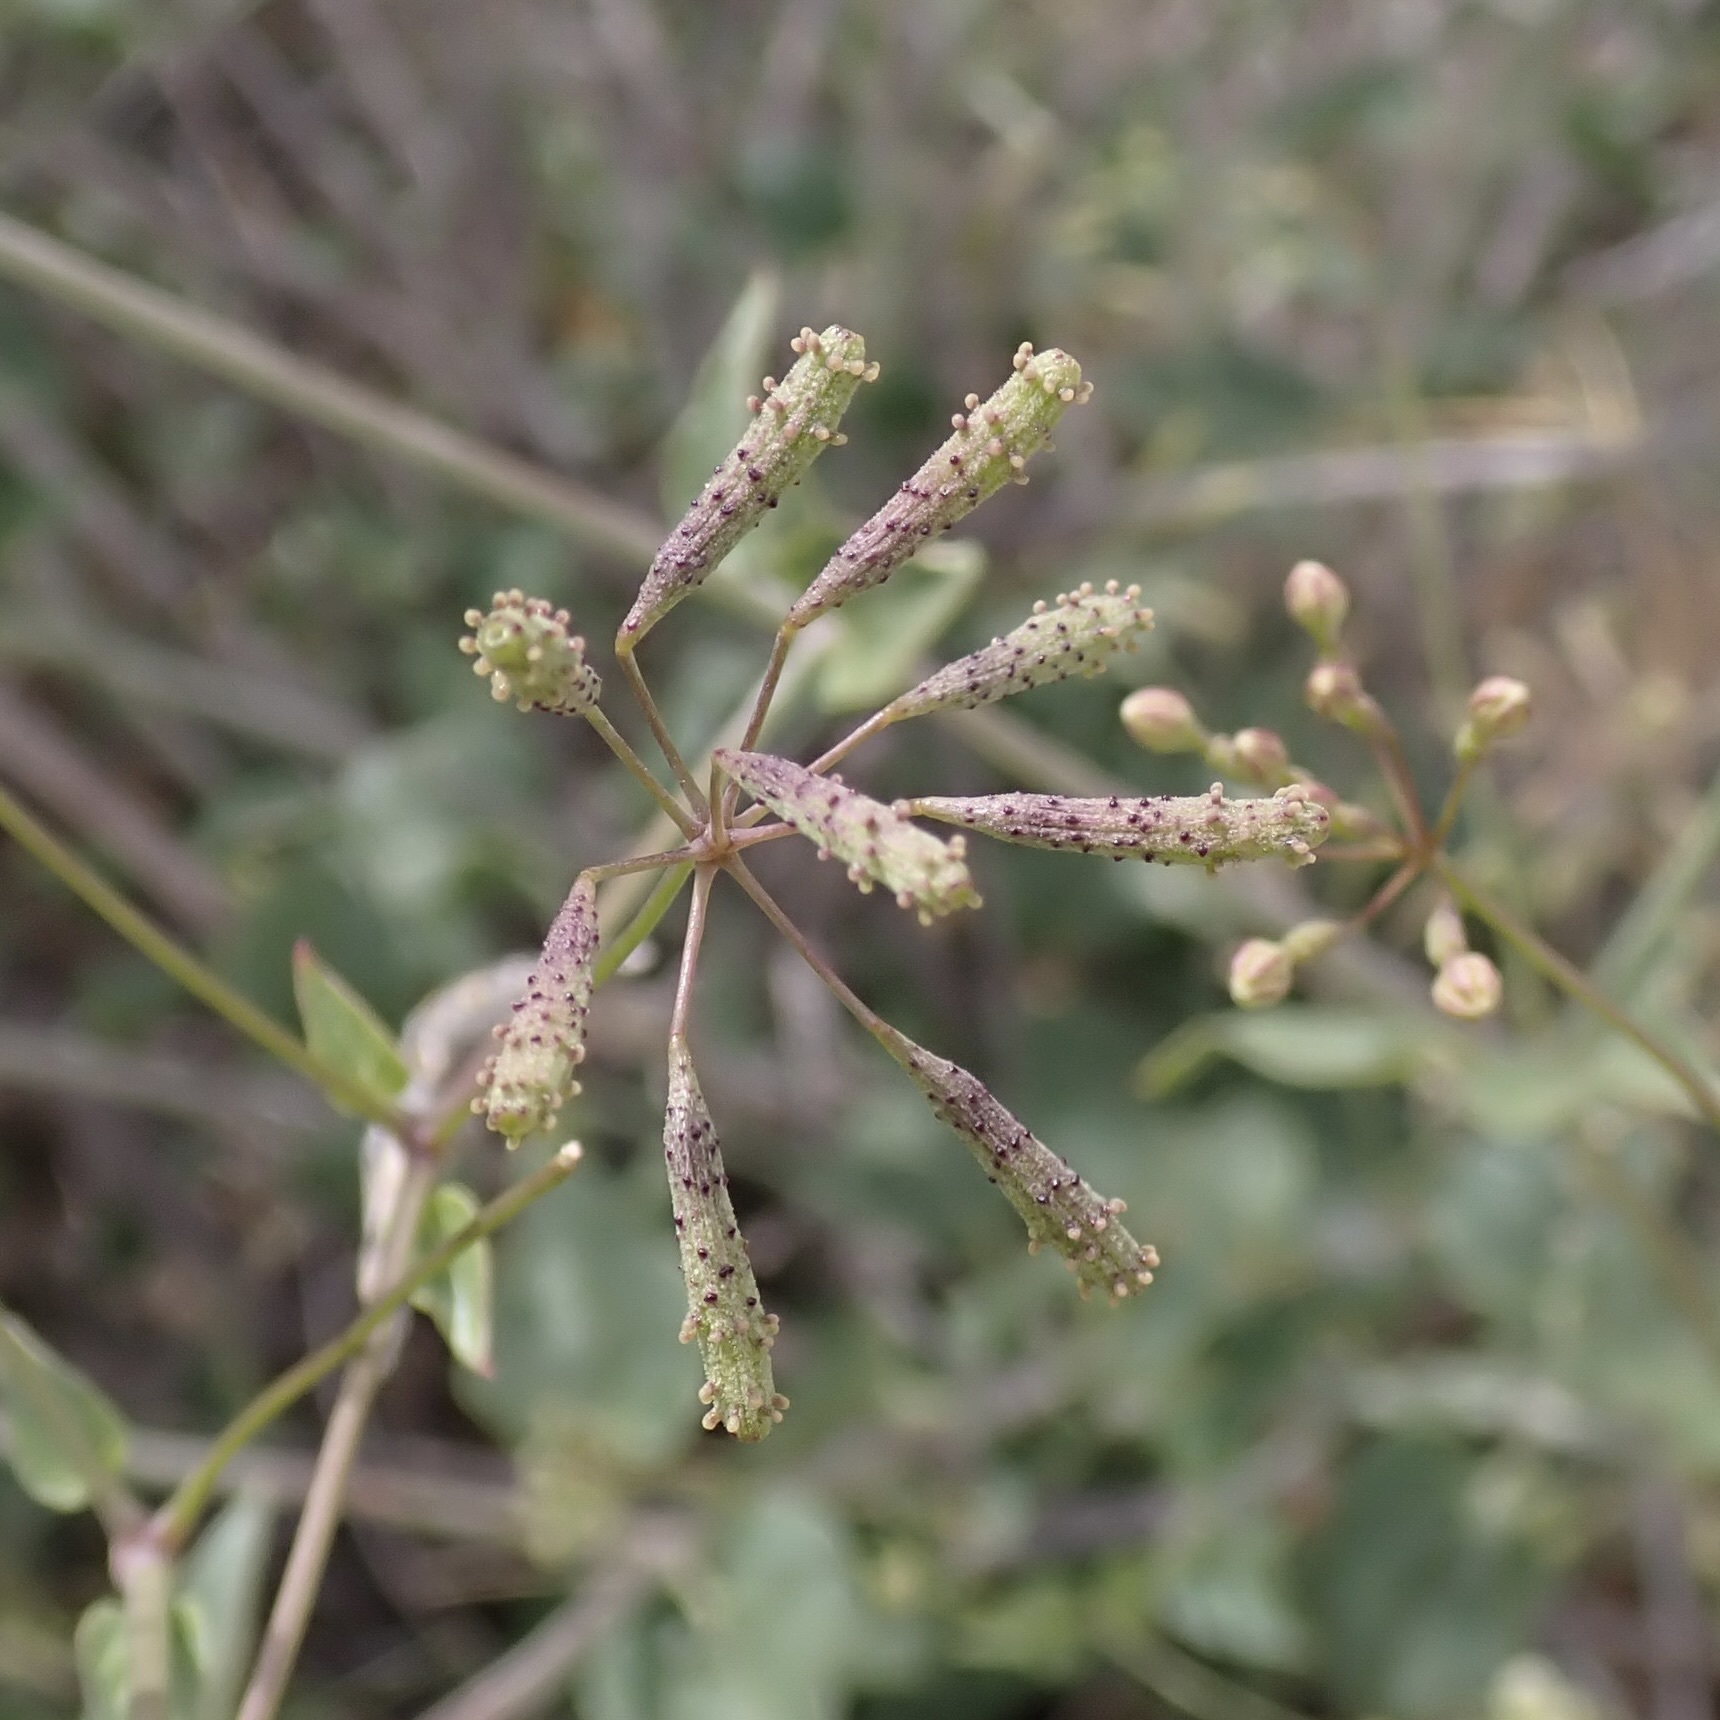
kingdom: Plantae
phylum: Tracheophyta
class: Magnoliopsida
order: Caryophyllales
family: Nyctaginaceae
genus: Commicarpus
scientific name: Commicarpus scandens
